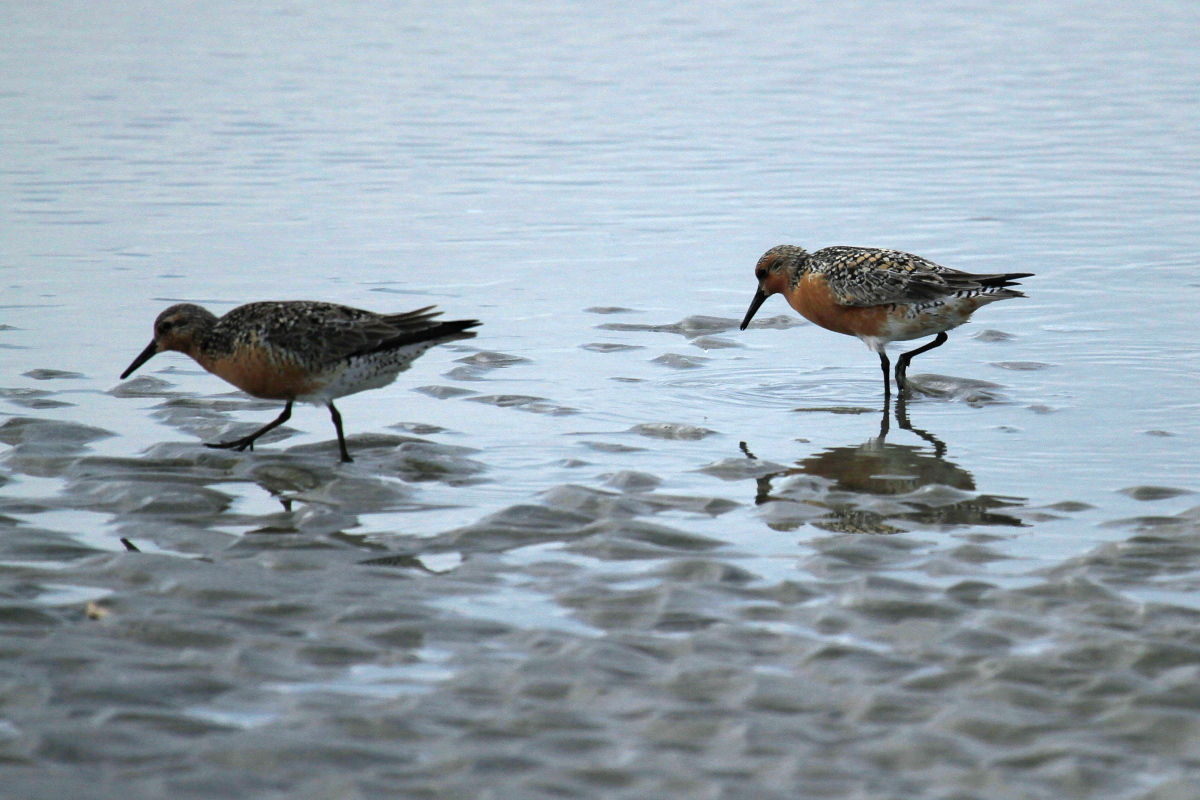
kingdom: Animalia
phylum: Chordata
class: Aves
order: Charadriiformes
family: Scolopacidae
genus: Calidris
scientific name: Calidris canutus
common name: Red knot
